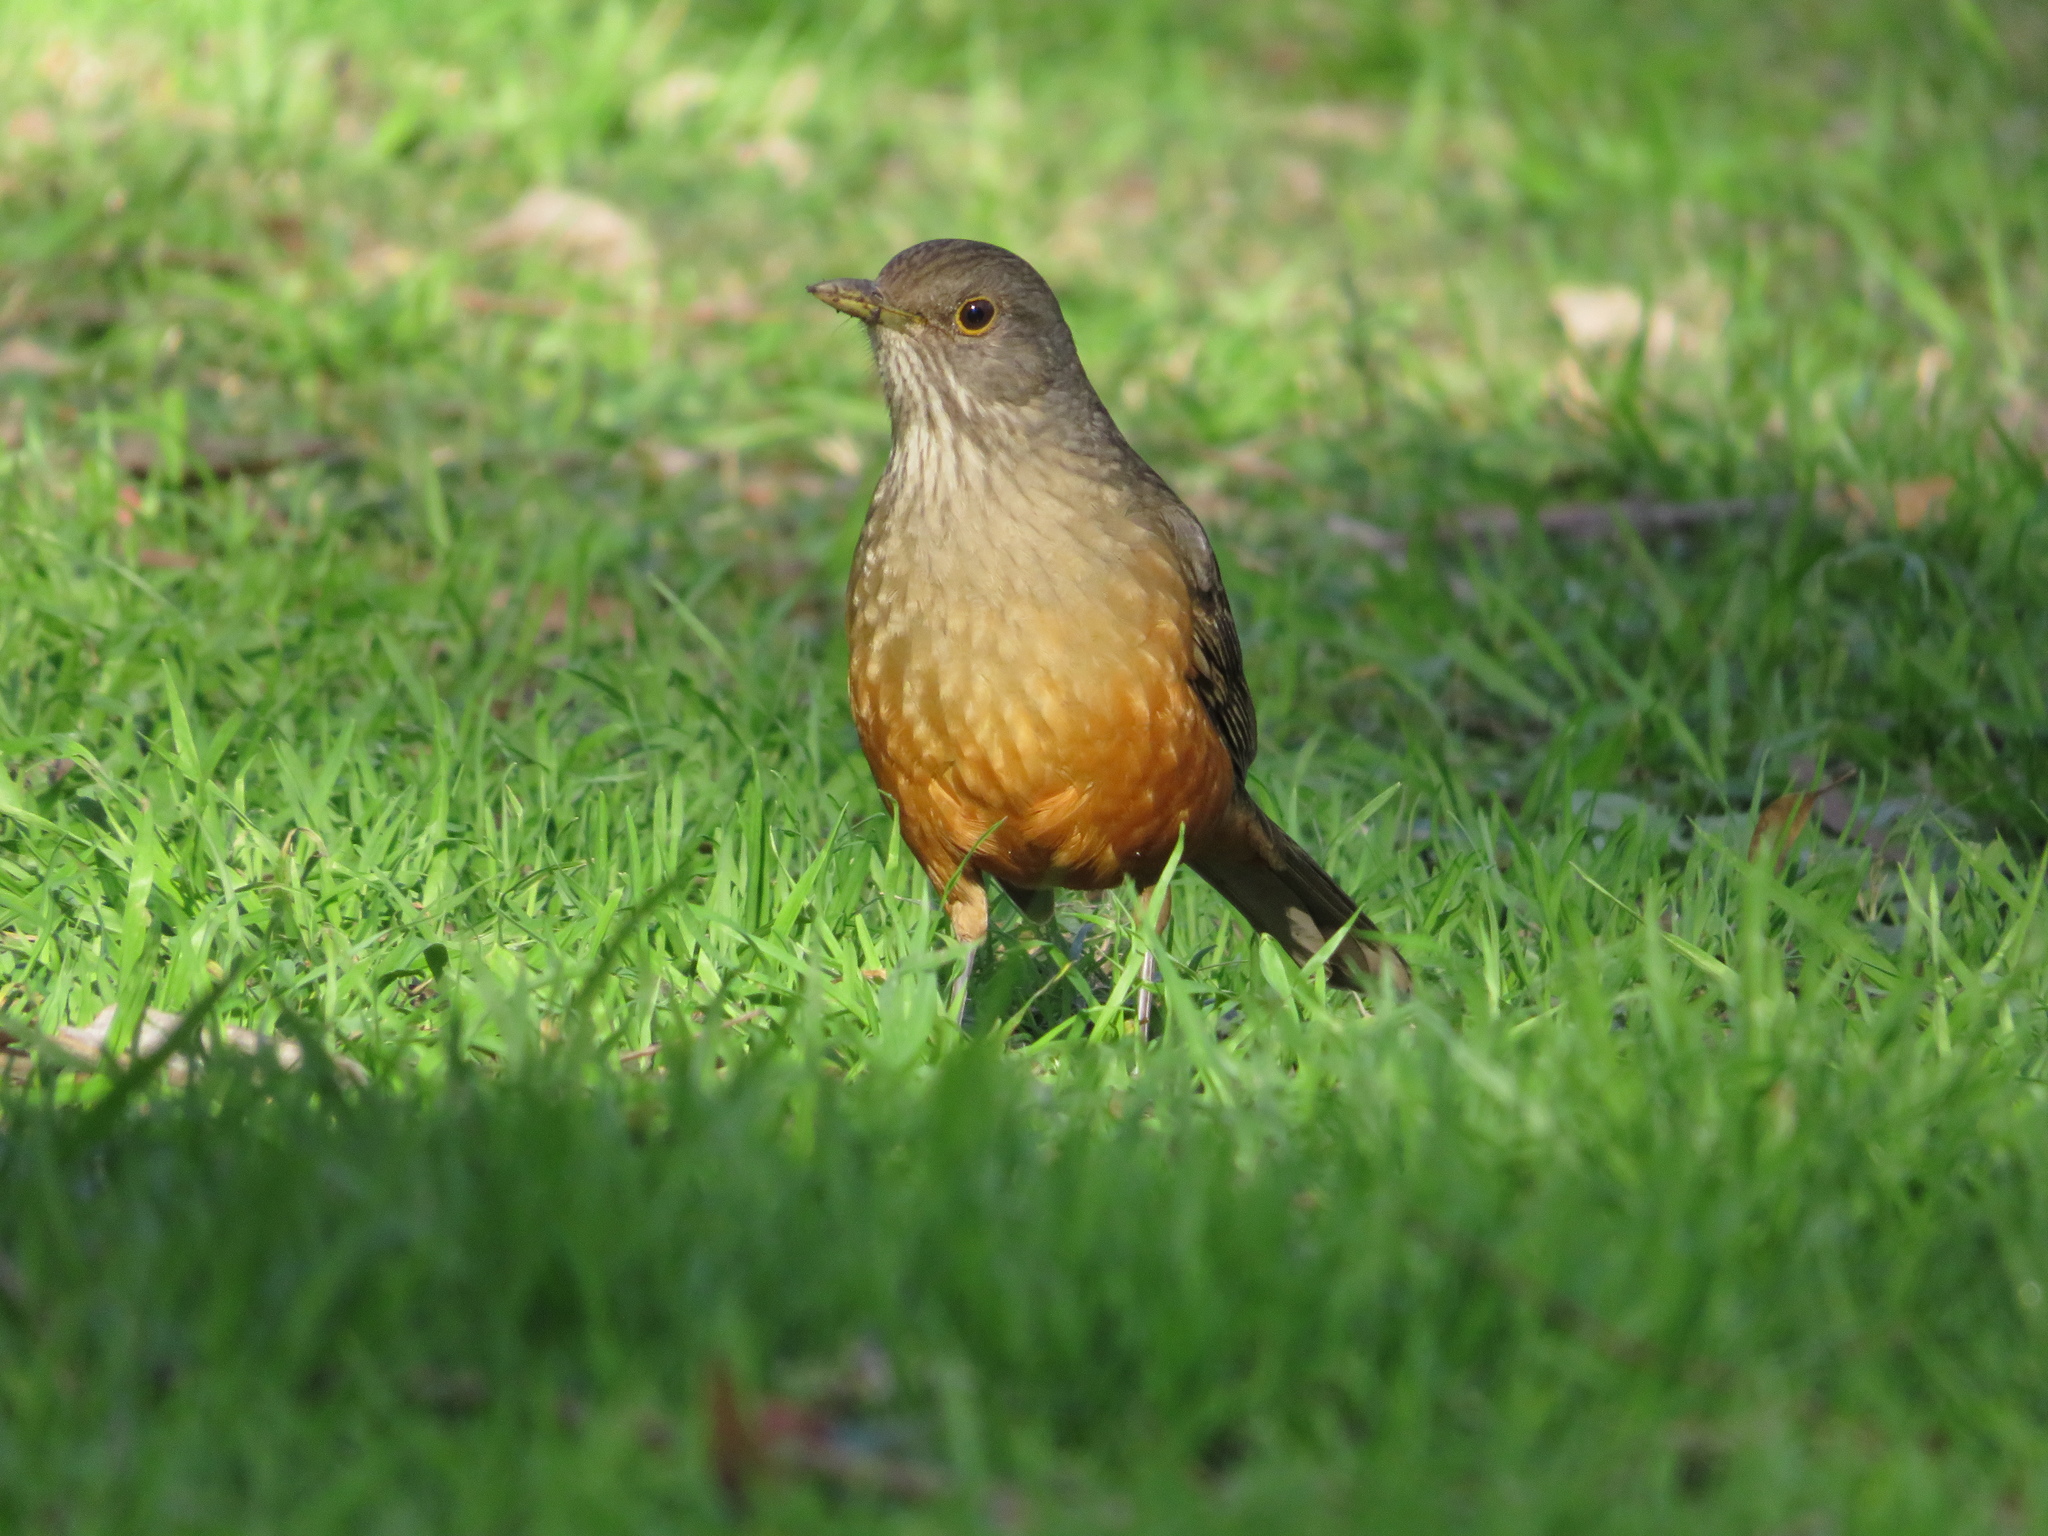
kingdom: Animalia
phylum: Chordata
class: Aves
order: Passeriformes
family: Turdidae
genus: Turdus
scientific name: Turdus rufiventris
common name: Rufous-bellied thrush
